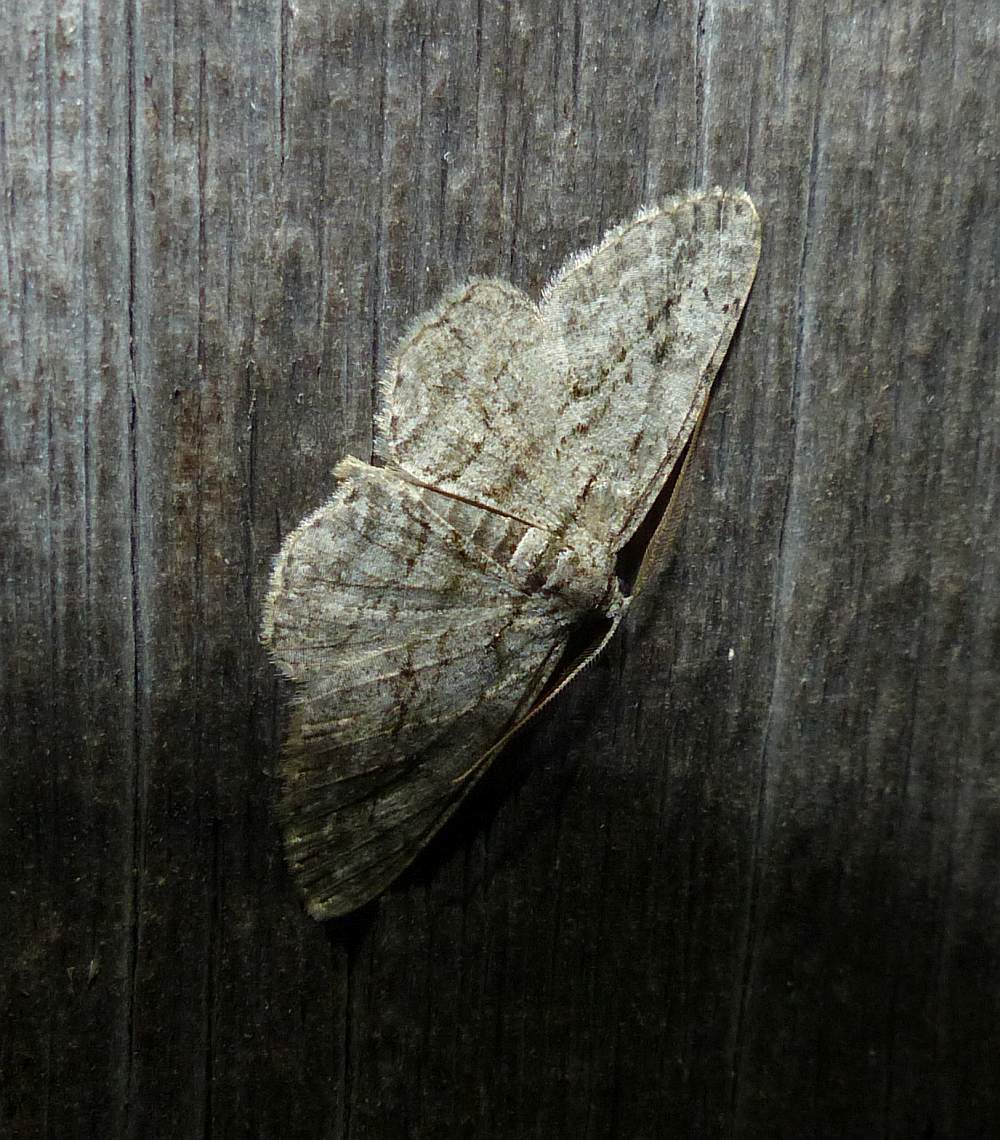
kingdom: Animalia
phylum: Arthropoda
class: Insecta
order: Lepidoptera
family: Geometridae
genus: Anavitrinella
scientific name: Anavitrinella pampinaria
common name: Common gray
